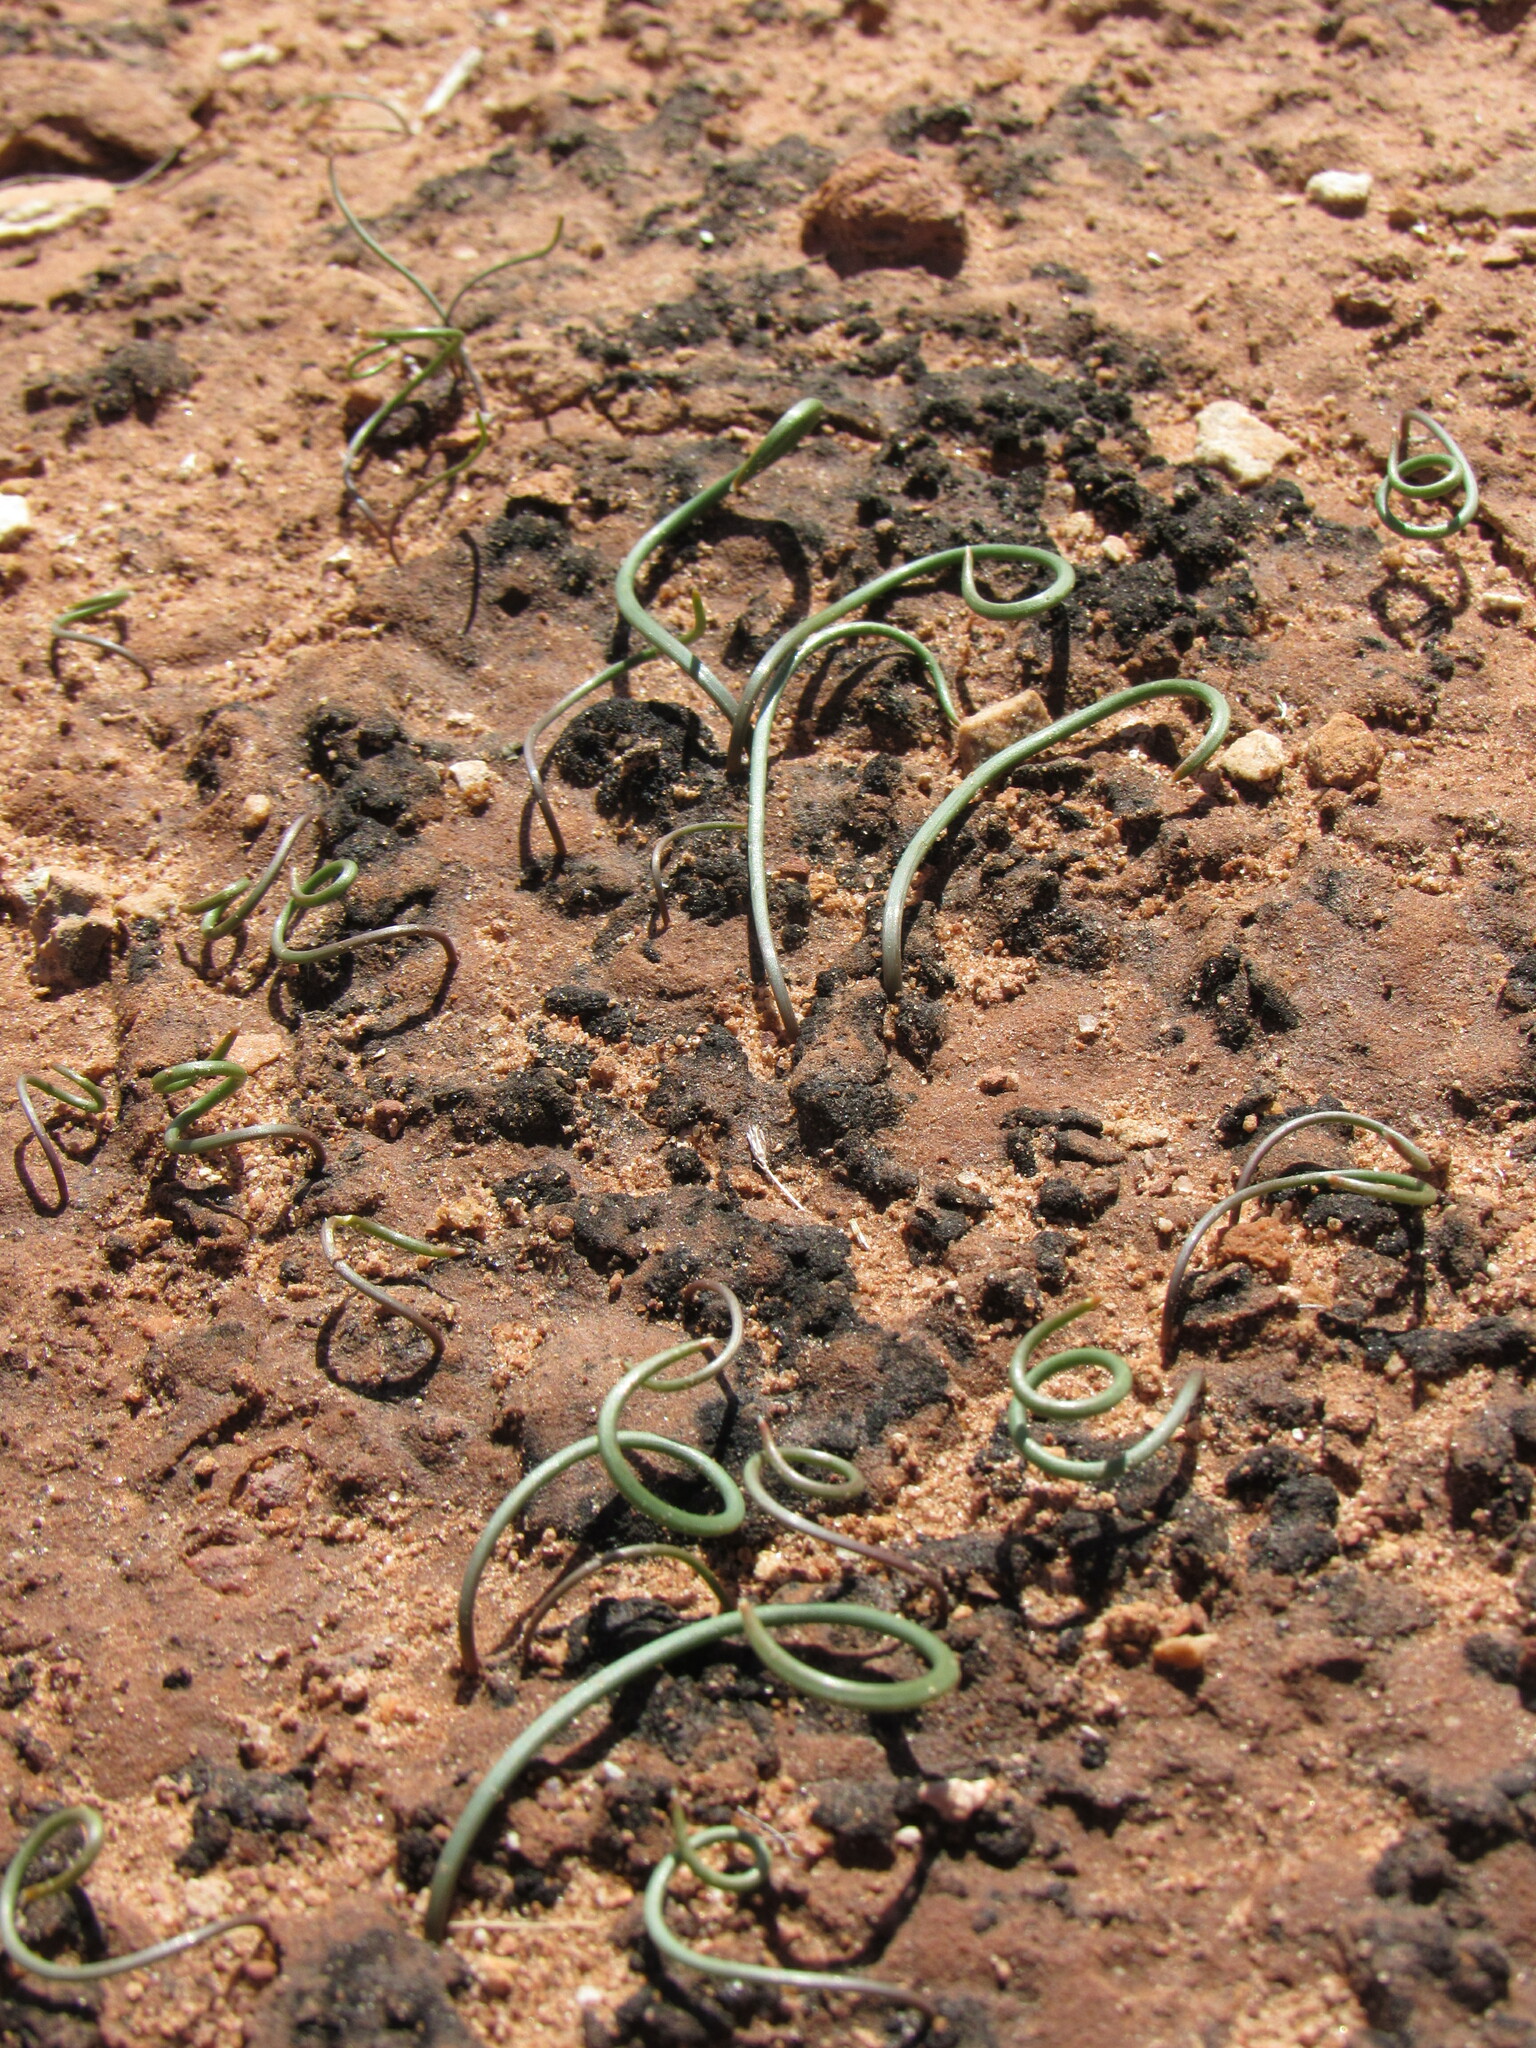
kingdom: Plantae
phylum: Tracheophyta
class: Liliopsida
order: Asparagales
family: Amaryllidaceae
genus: Allium
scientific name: Allium nevadense
